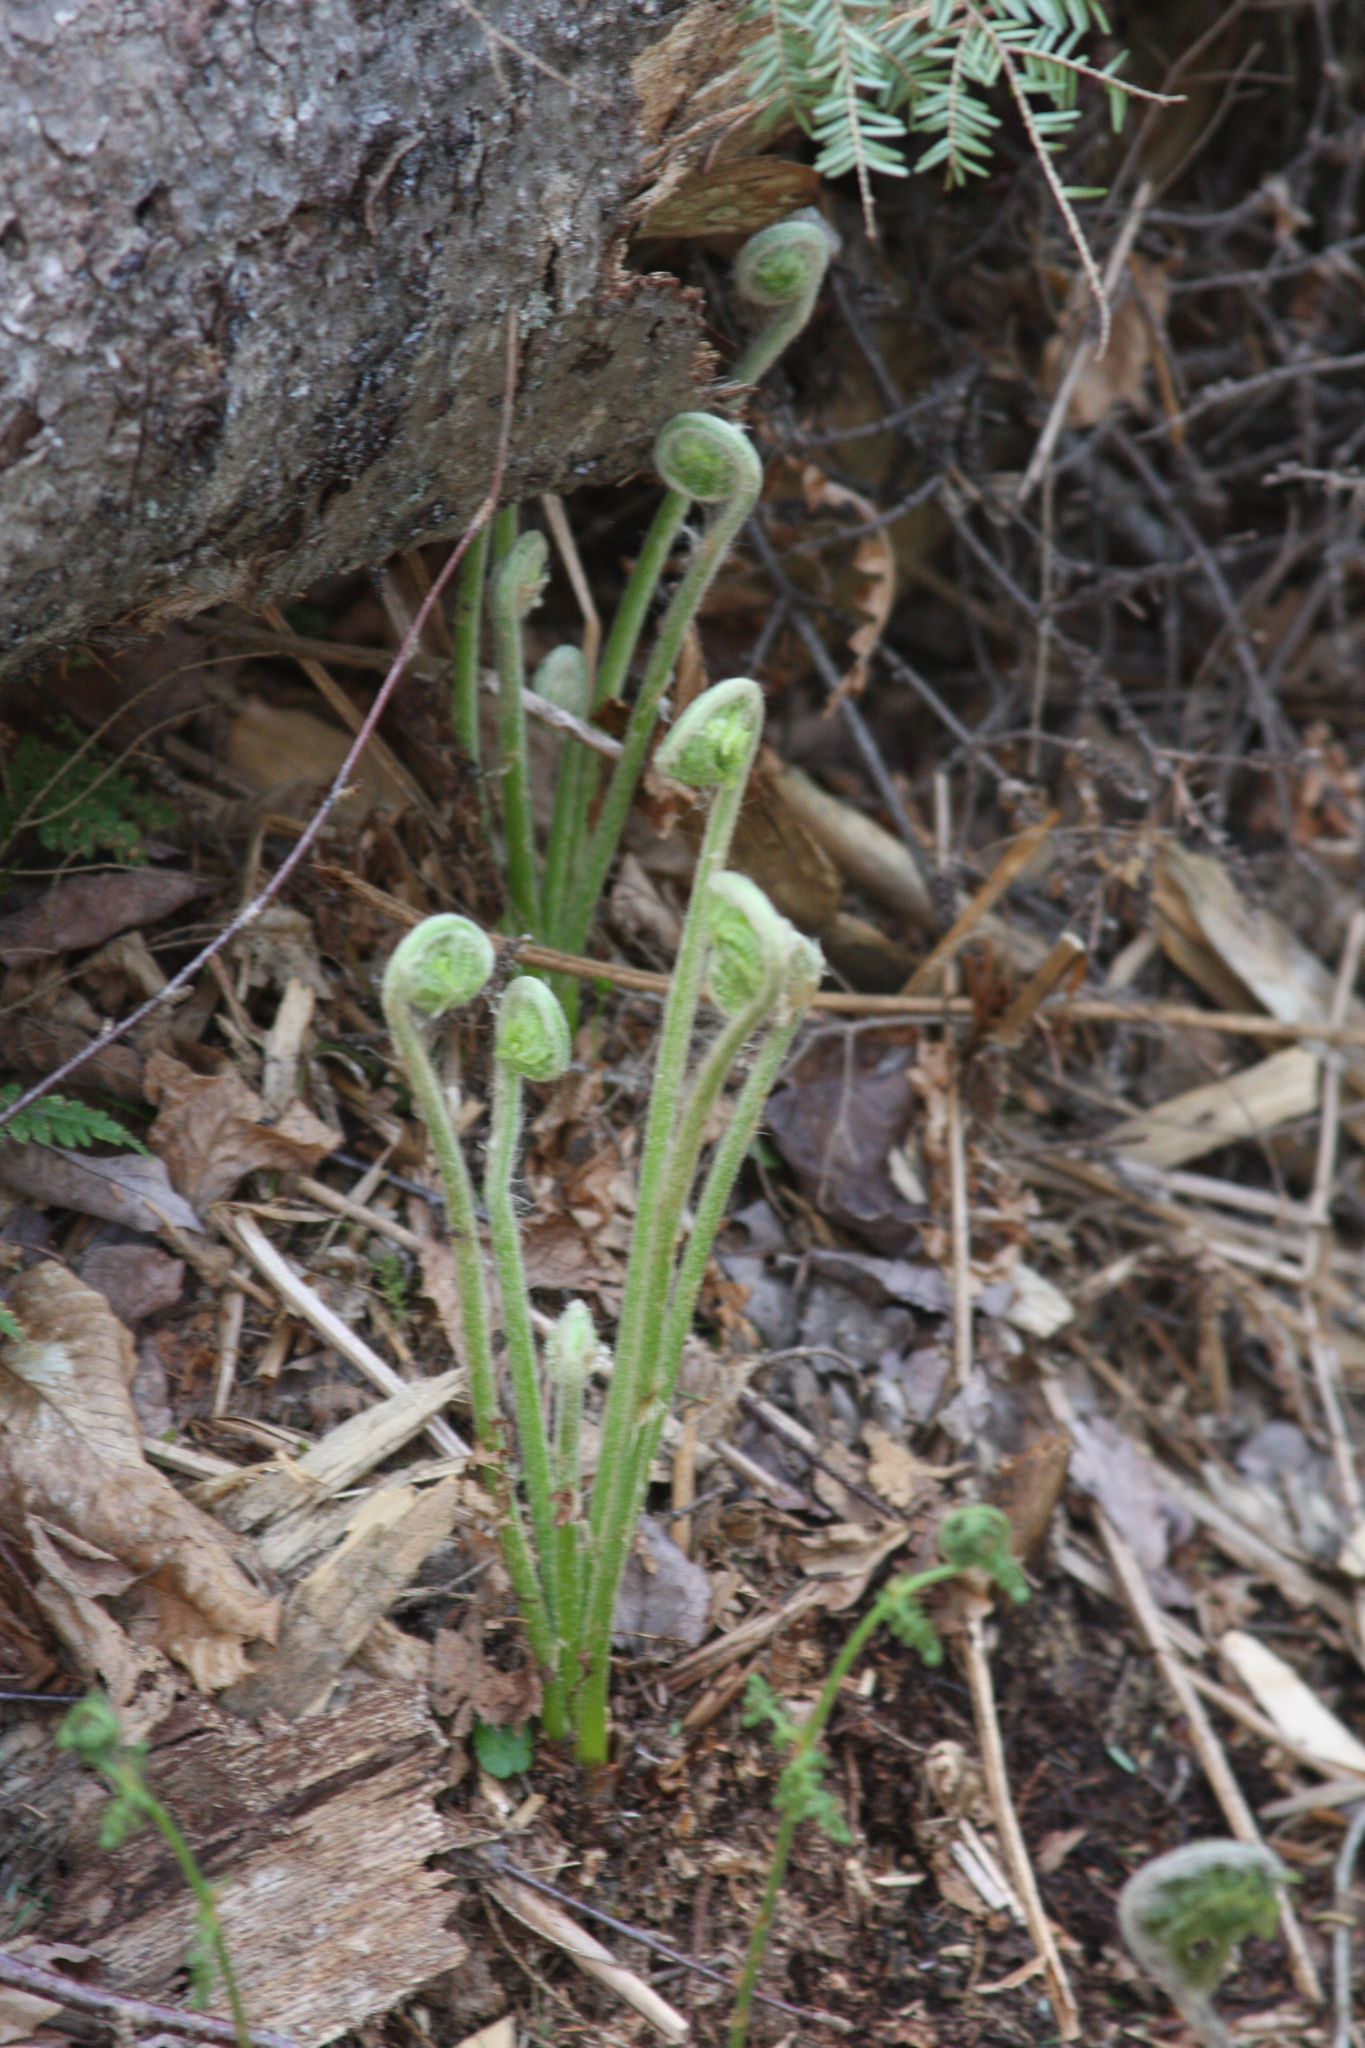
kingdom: Plantae
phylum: Tracheophyta
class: Polypodiopsida
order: Osmundales
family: Osmundaceae
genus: Claytosmunda
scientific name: Claytosmunda claytoniana
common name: Clayton's fern
